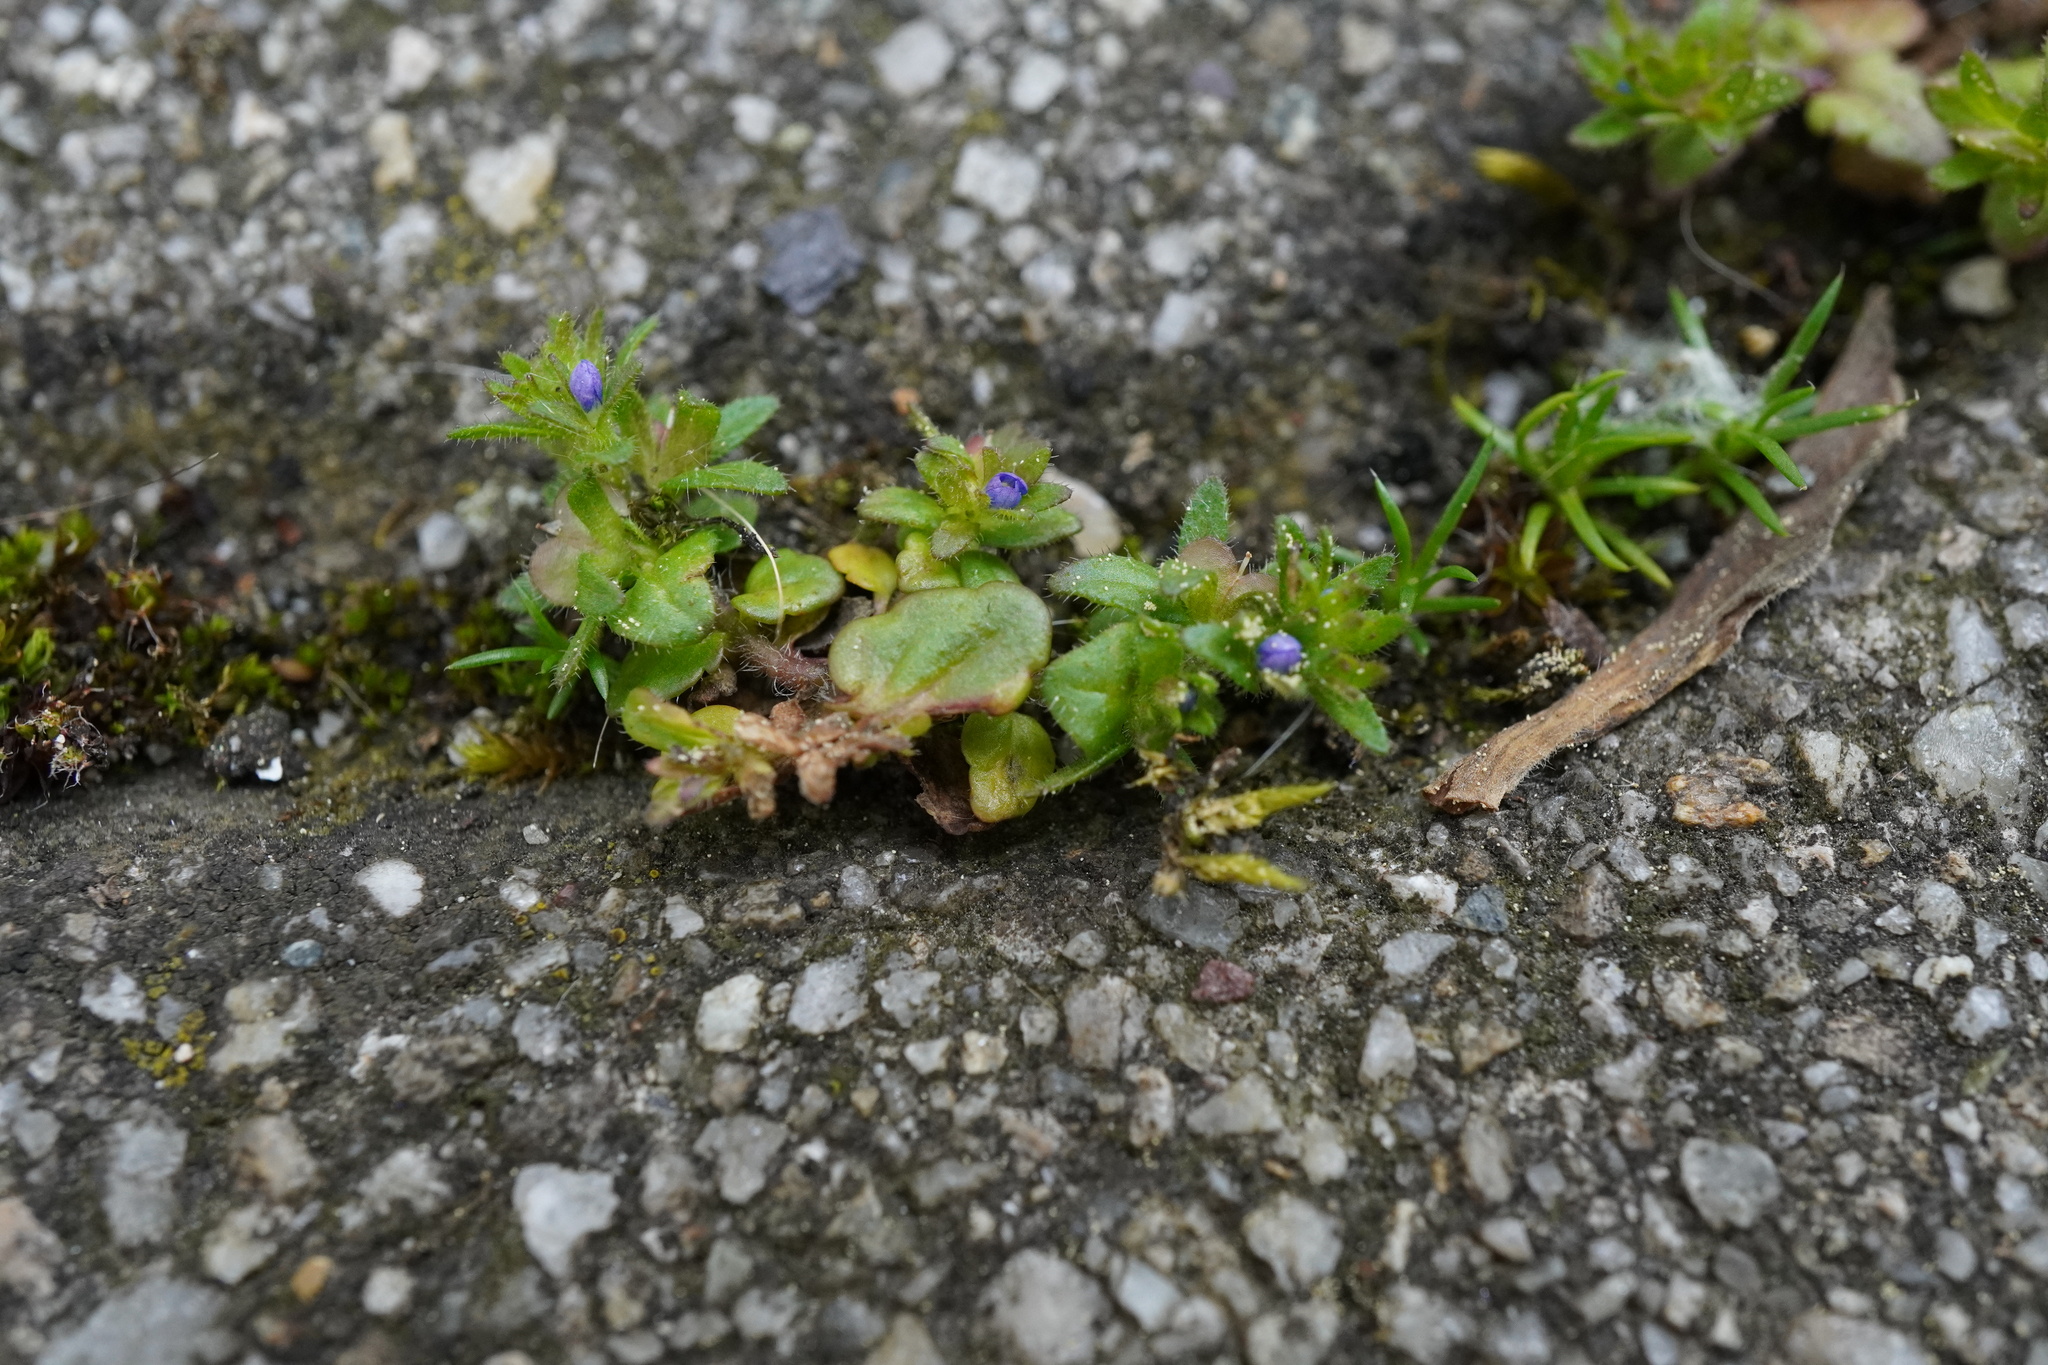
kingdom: Plantae
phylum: Tracheophyta
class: Magnoliopsida
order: Lamiales
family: Plantaginaceae
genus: Veronica
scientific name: Veronica arvensis
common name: Corn speedwell
